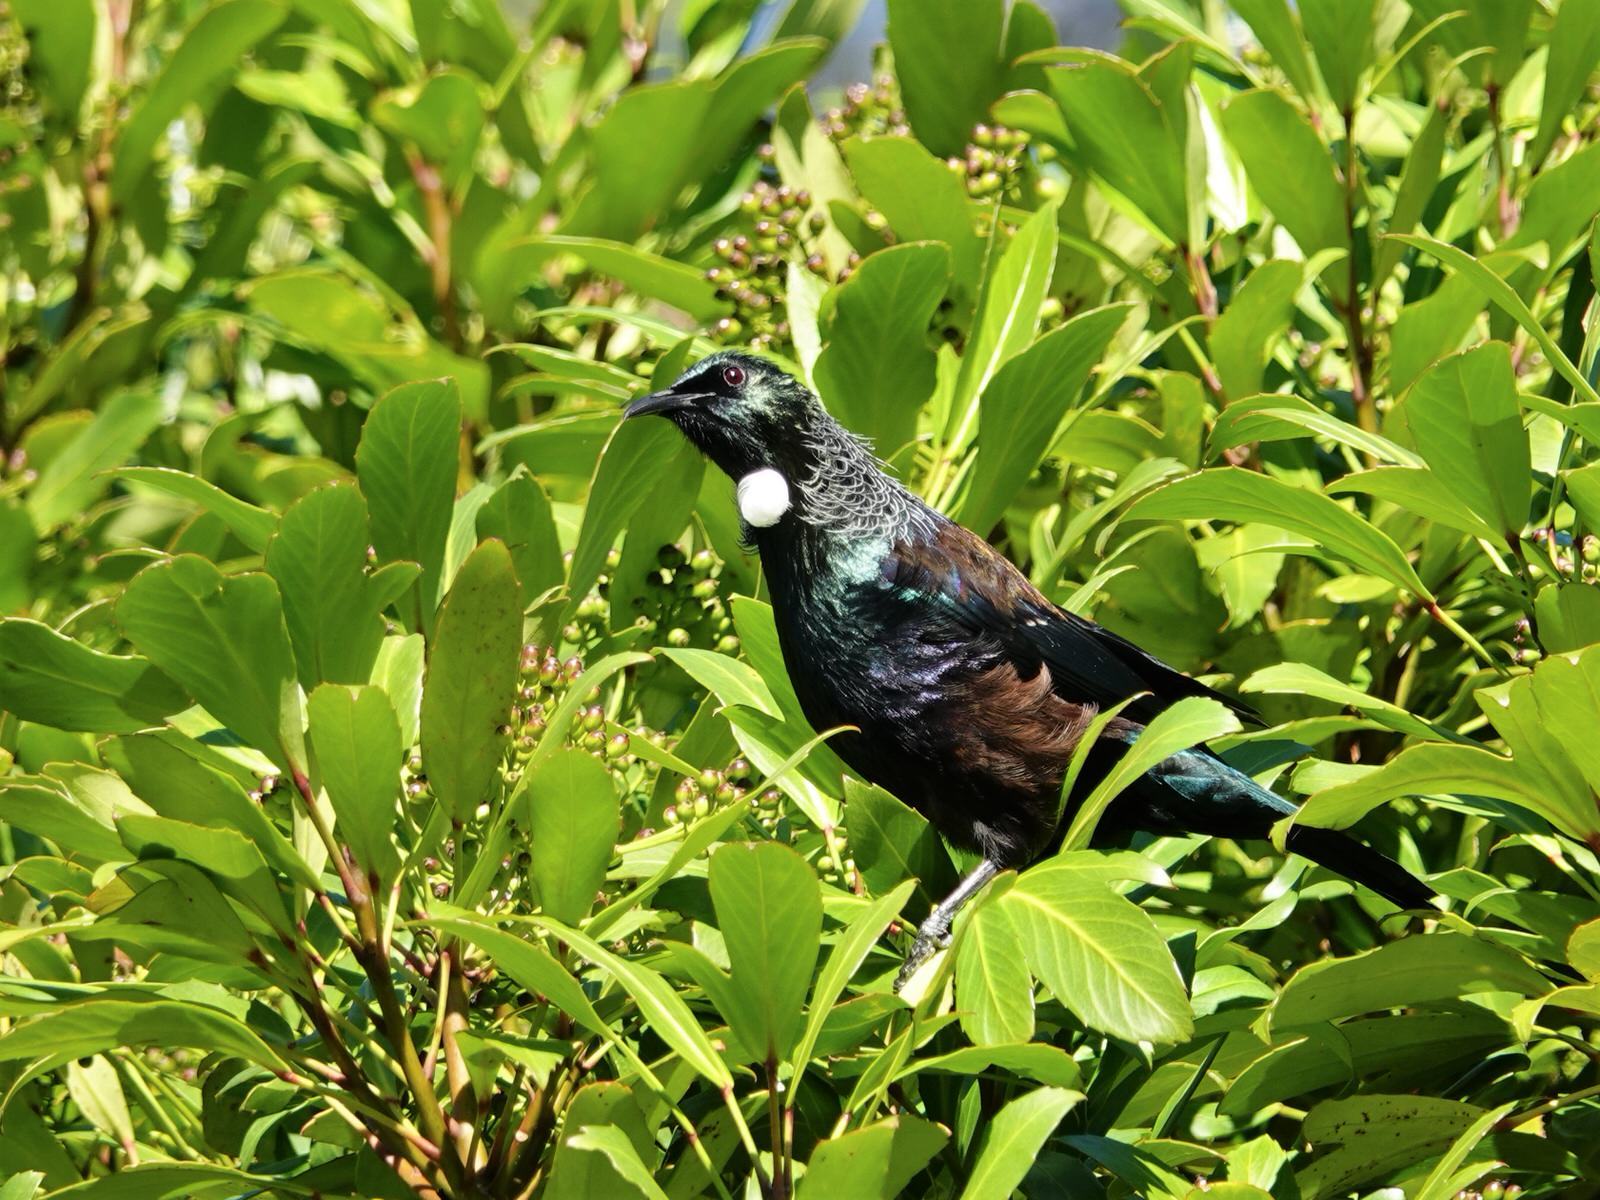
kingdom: Animalia
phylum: Chordata
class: Aves
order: Passeriformes
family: Meliphagidae
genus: Prosthemadera
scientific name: Prosthemadera novaeseelandiae
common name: Tui
